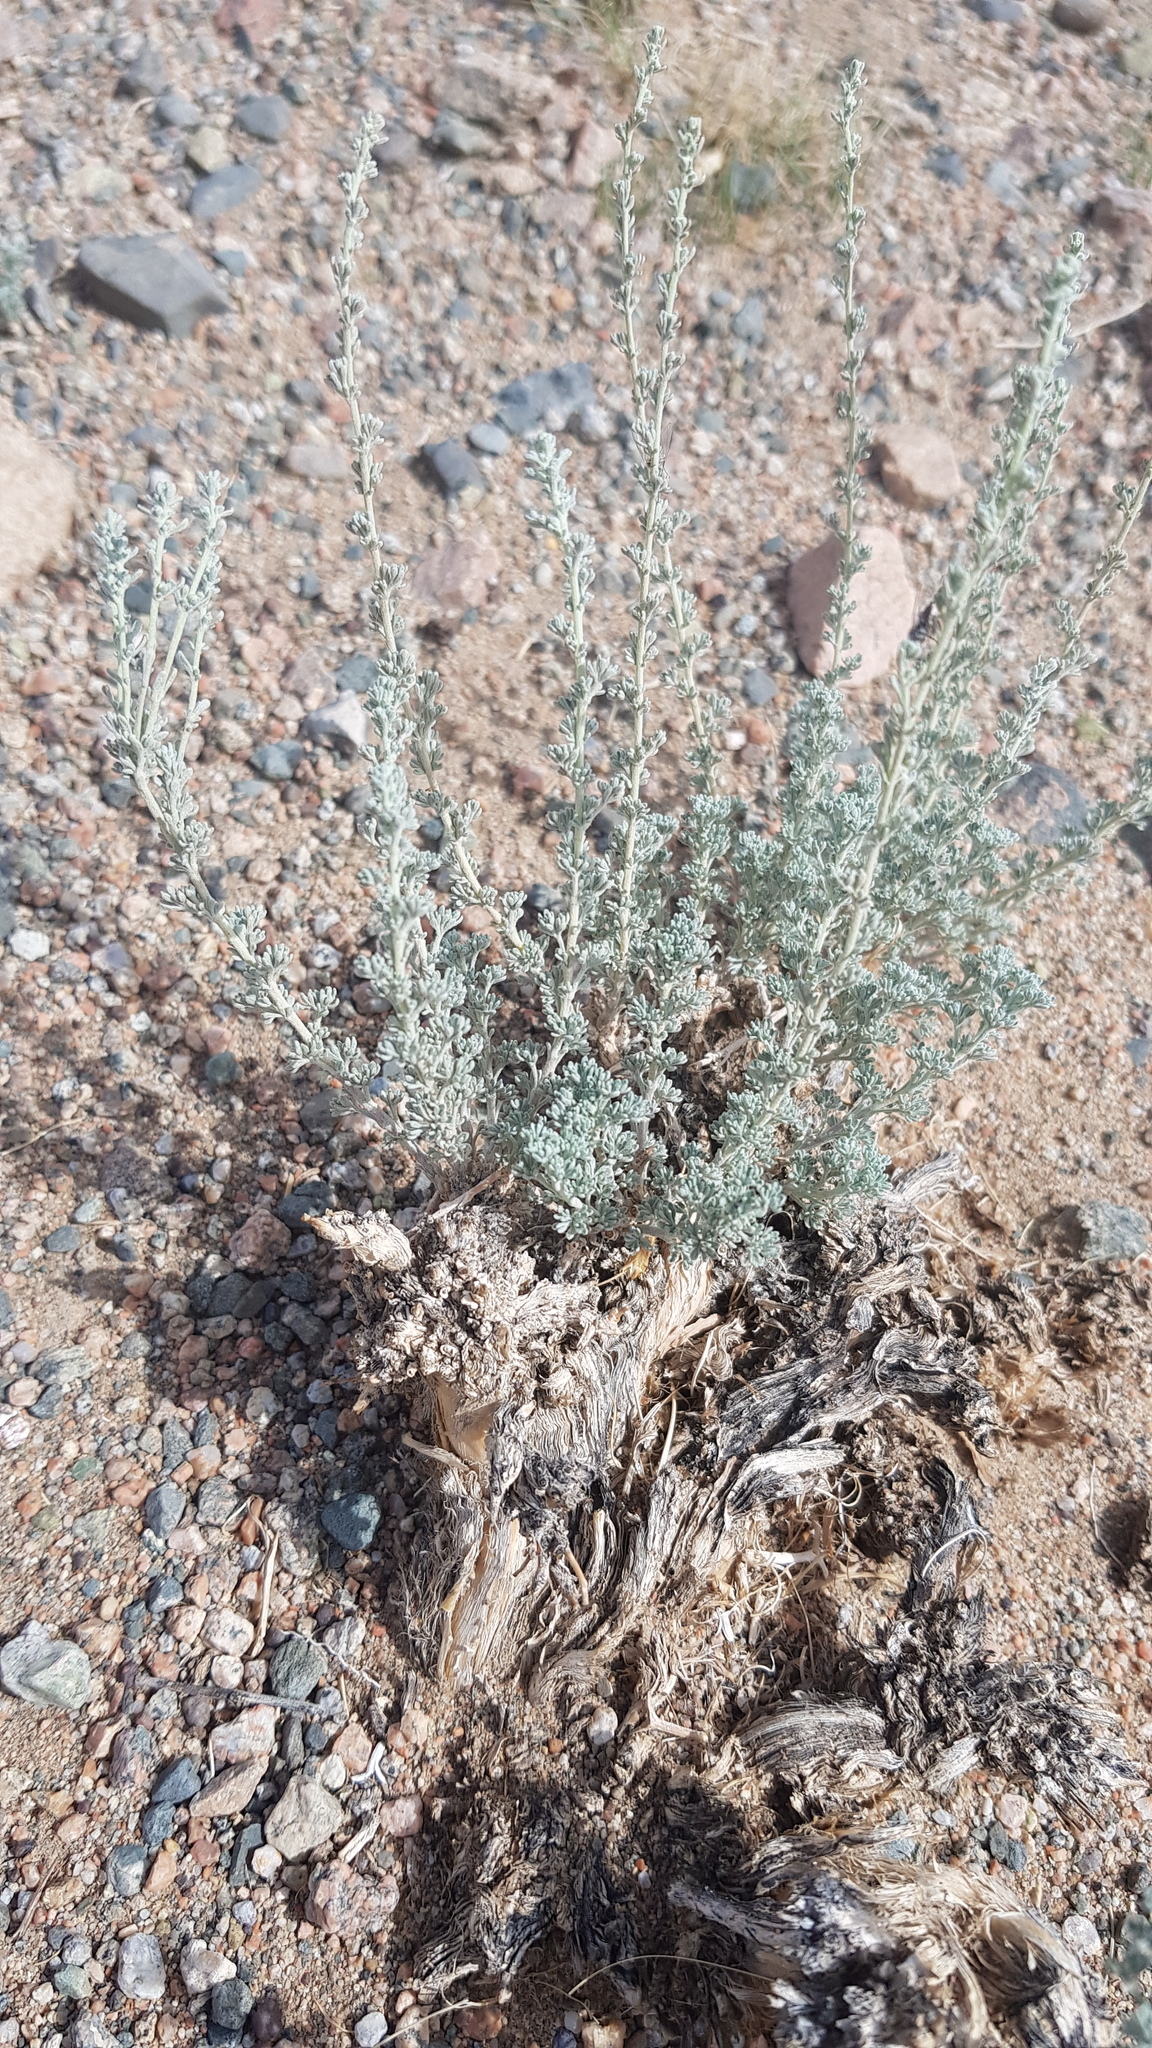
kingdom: Plantae
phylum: Tracheophyta
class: Magnoliopsida
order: Asterales
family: Asteraceae
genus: Artemisia
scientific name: Artemisia xerophytica
